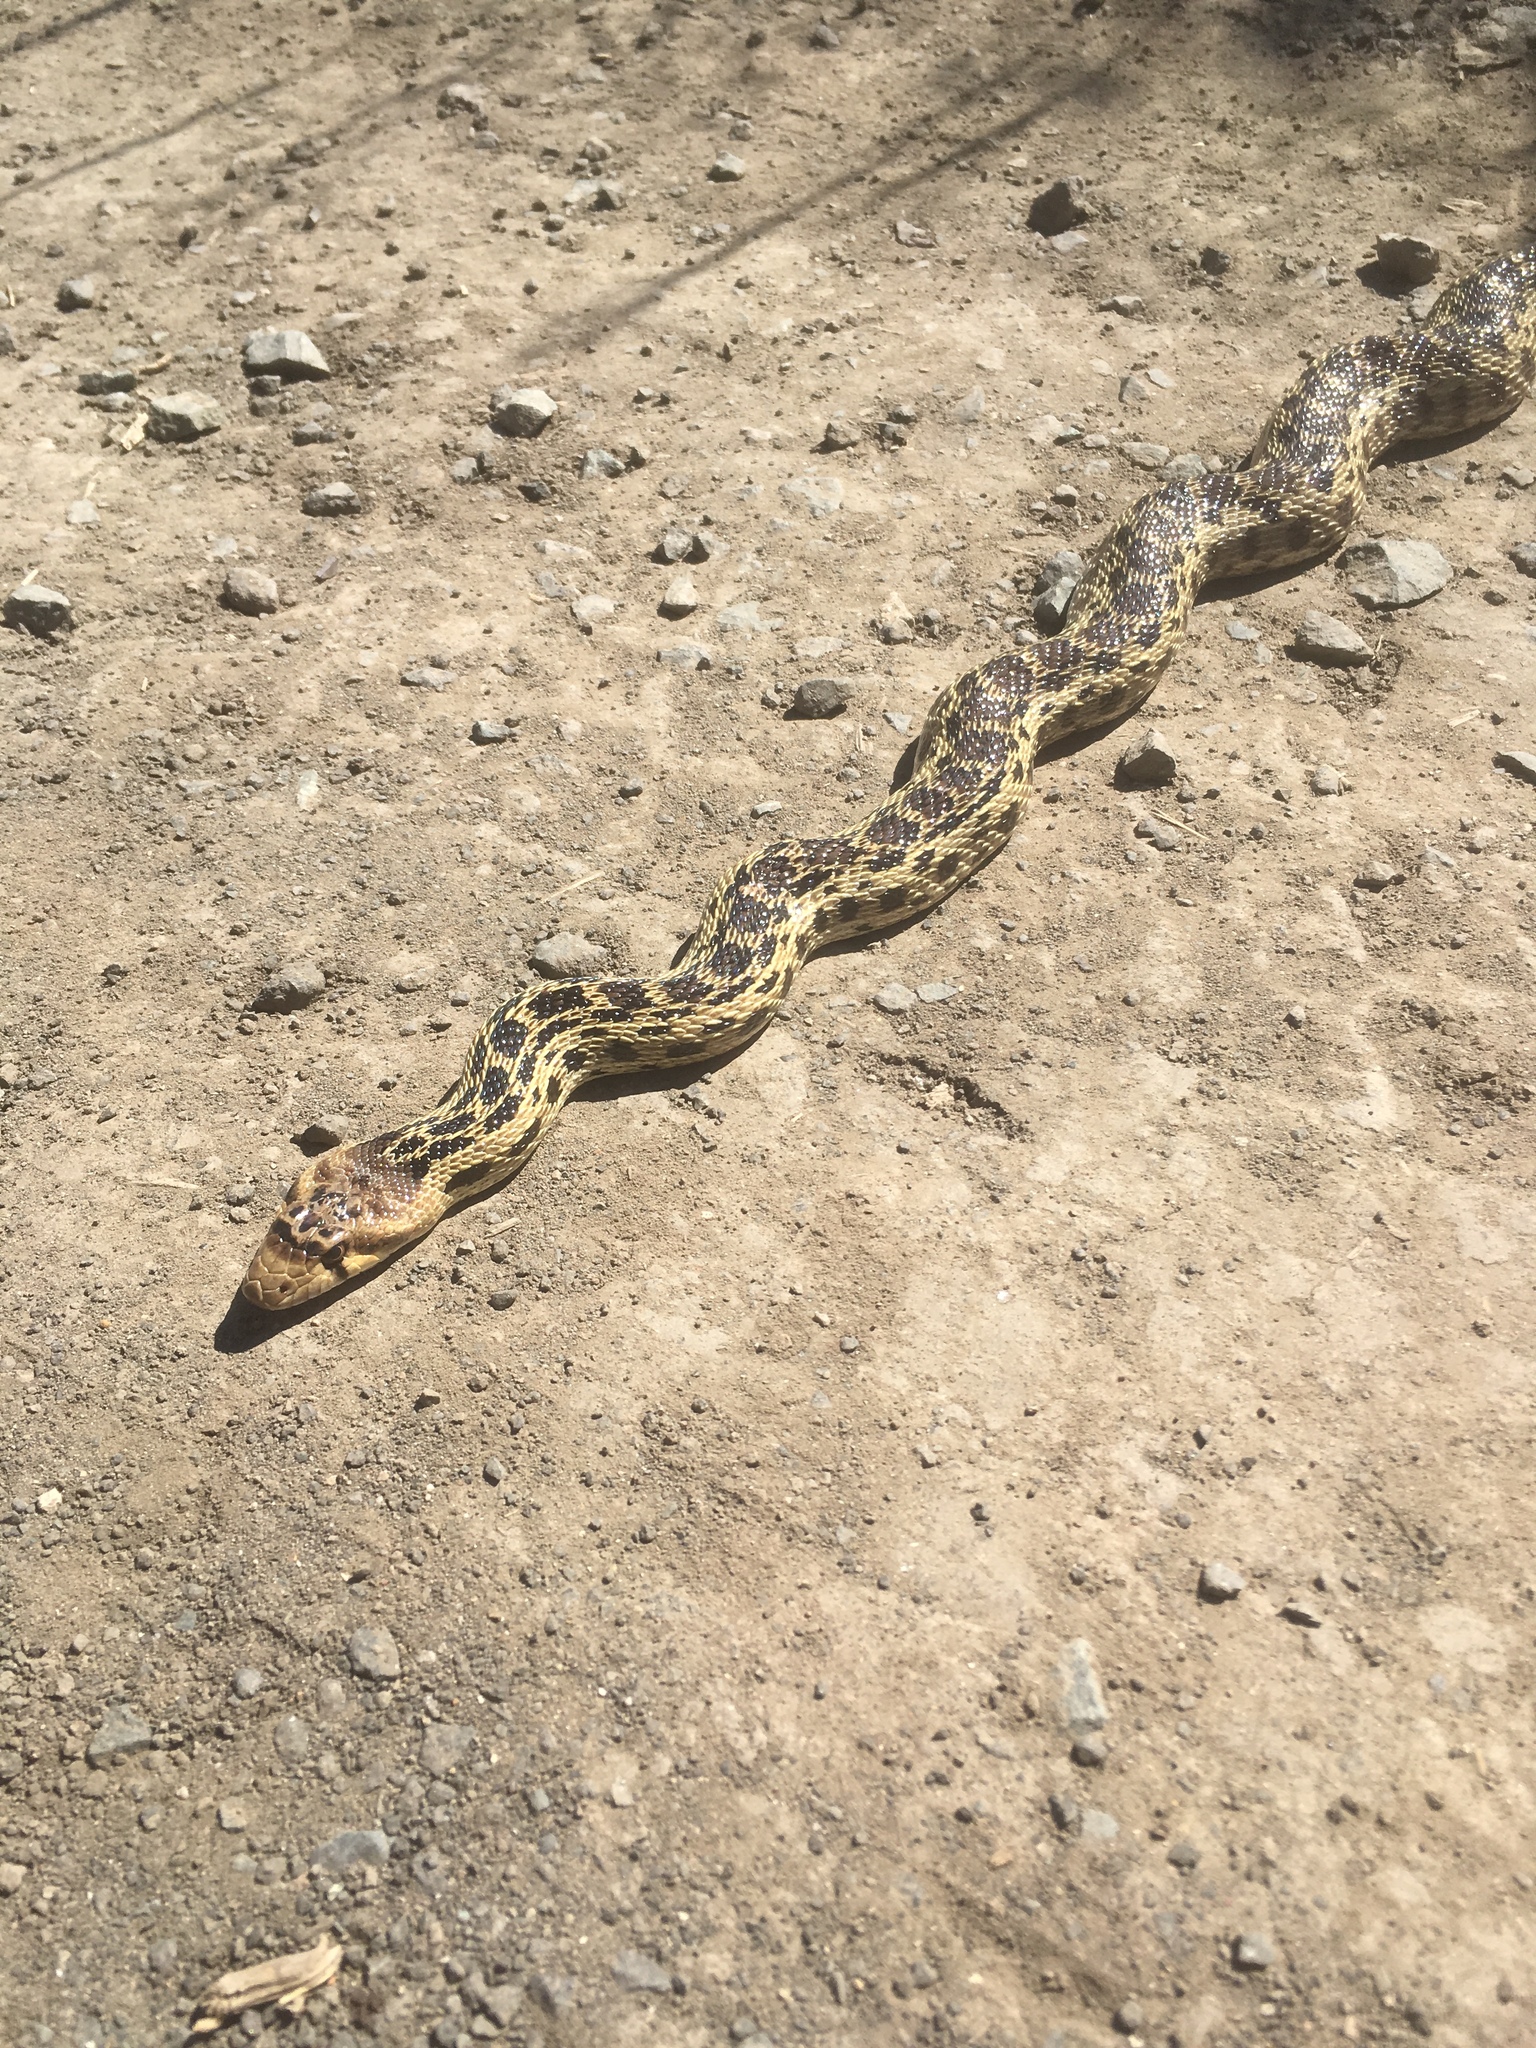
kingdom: Animalia
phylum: Chordata
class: Squamata
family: Colubridae
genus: Pituophis
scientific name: Pituophis catenifer
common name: Gopher snake
